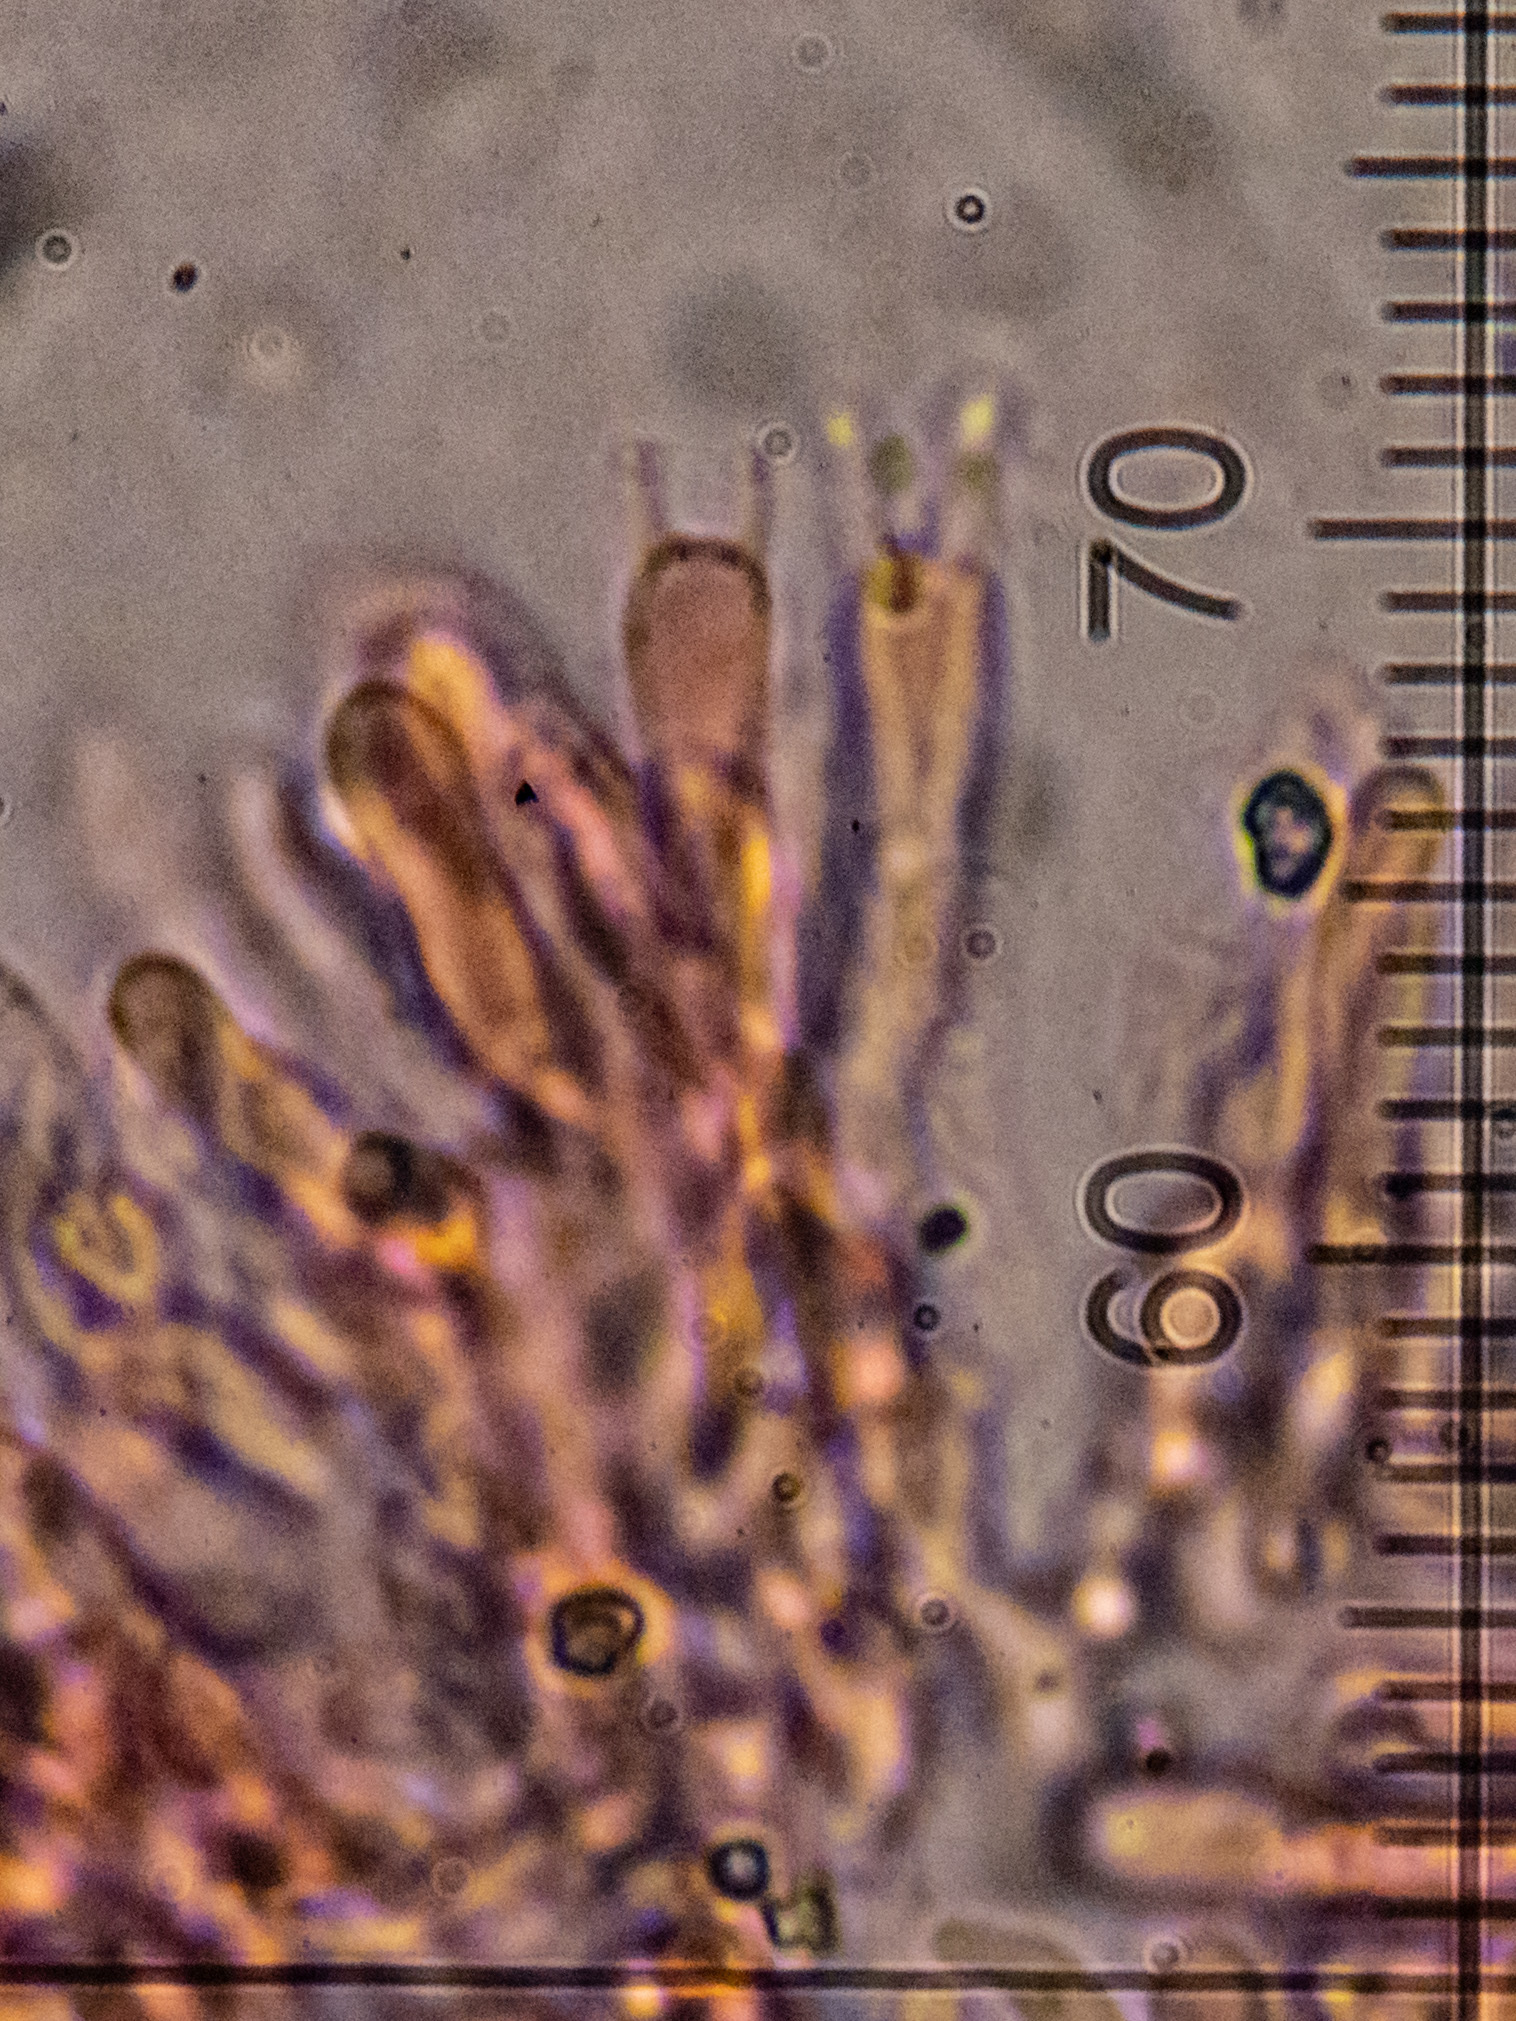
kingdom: Fungi
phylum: Basidiomycota
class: Agaricomycetes
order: Polyporales
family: Irpicaceae
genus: Byssomerulius
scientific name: Byssomerulius corium
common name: Netted crust
